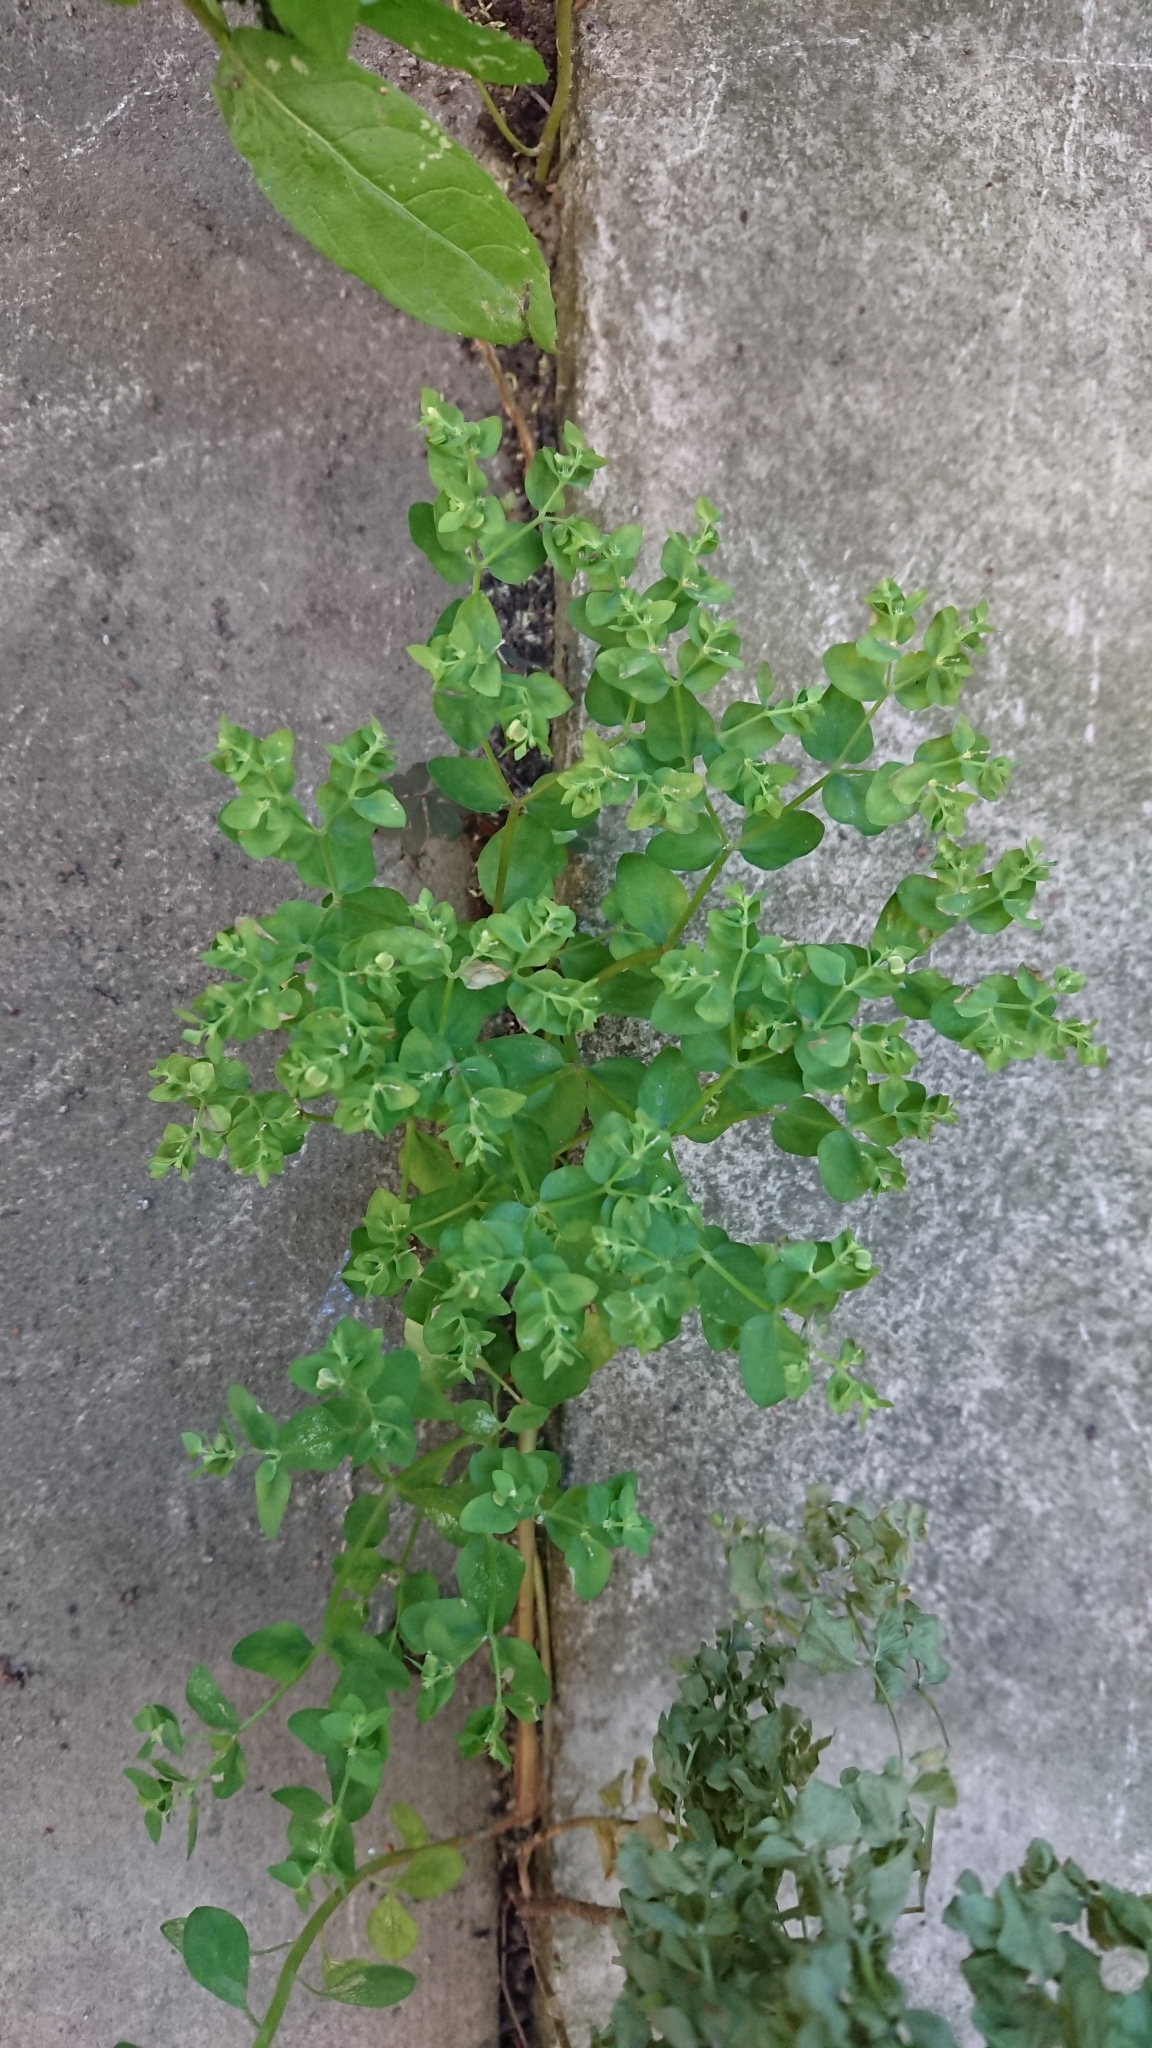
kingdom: Plantae
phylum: Tracheophyta
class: Magnoliopsida
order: Malpighiales
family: Euphorbiaceae
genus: Euphorbia
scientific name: Euphorbia peplus
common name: Petty spurge
